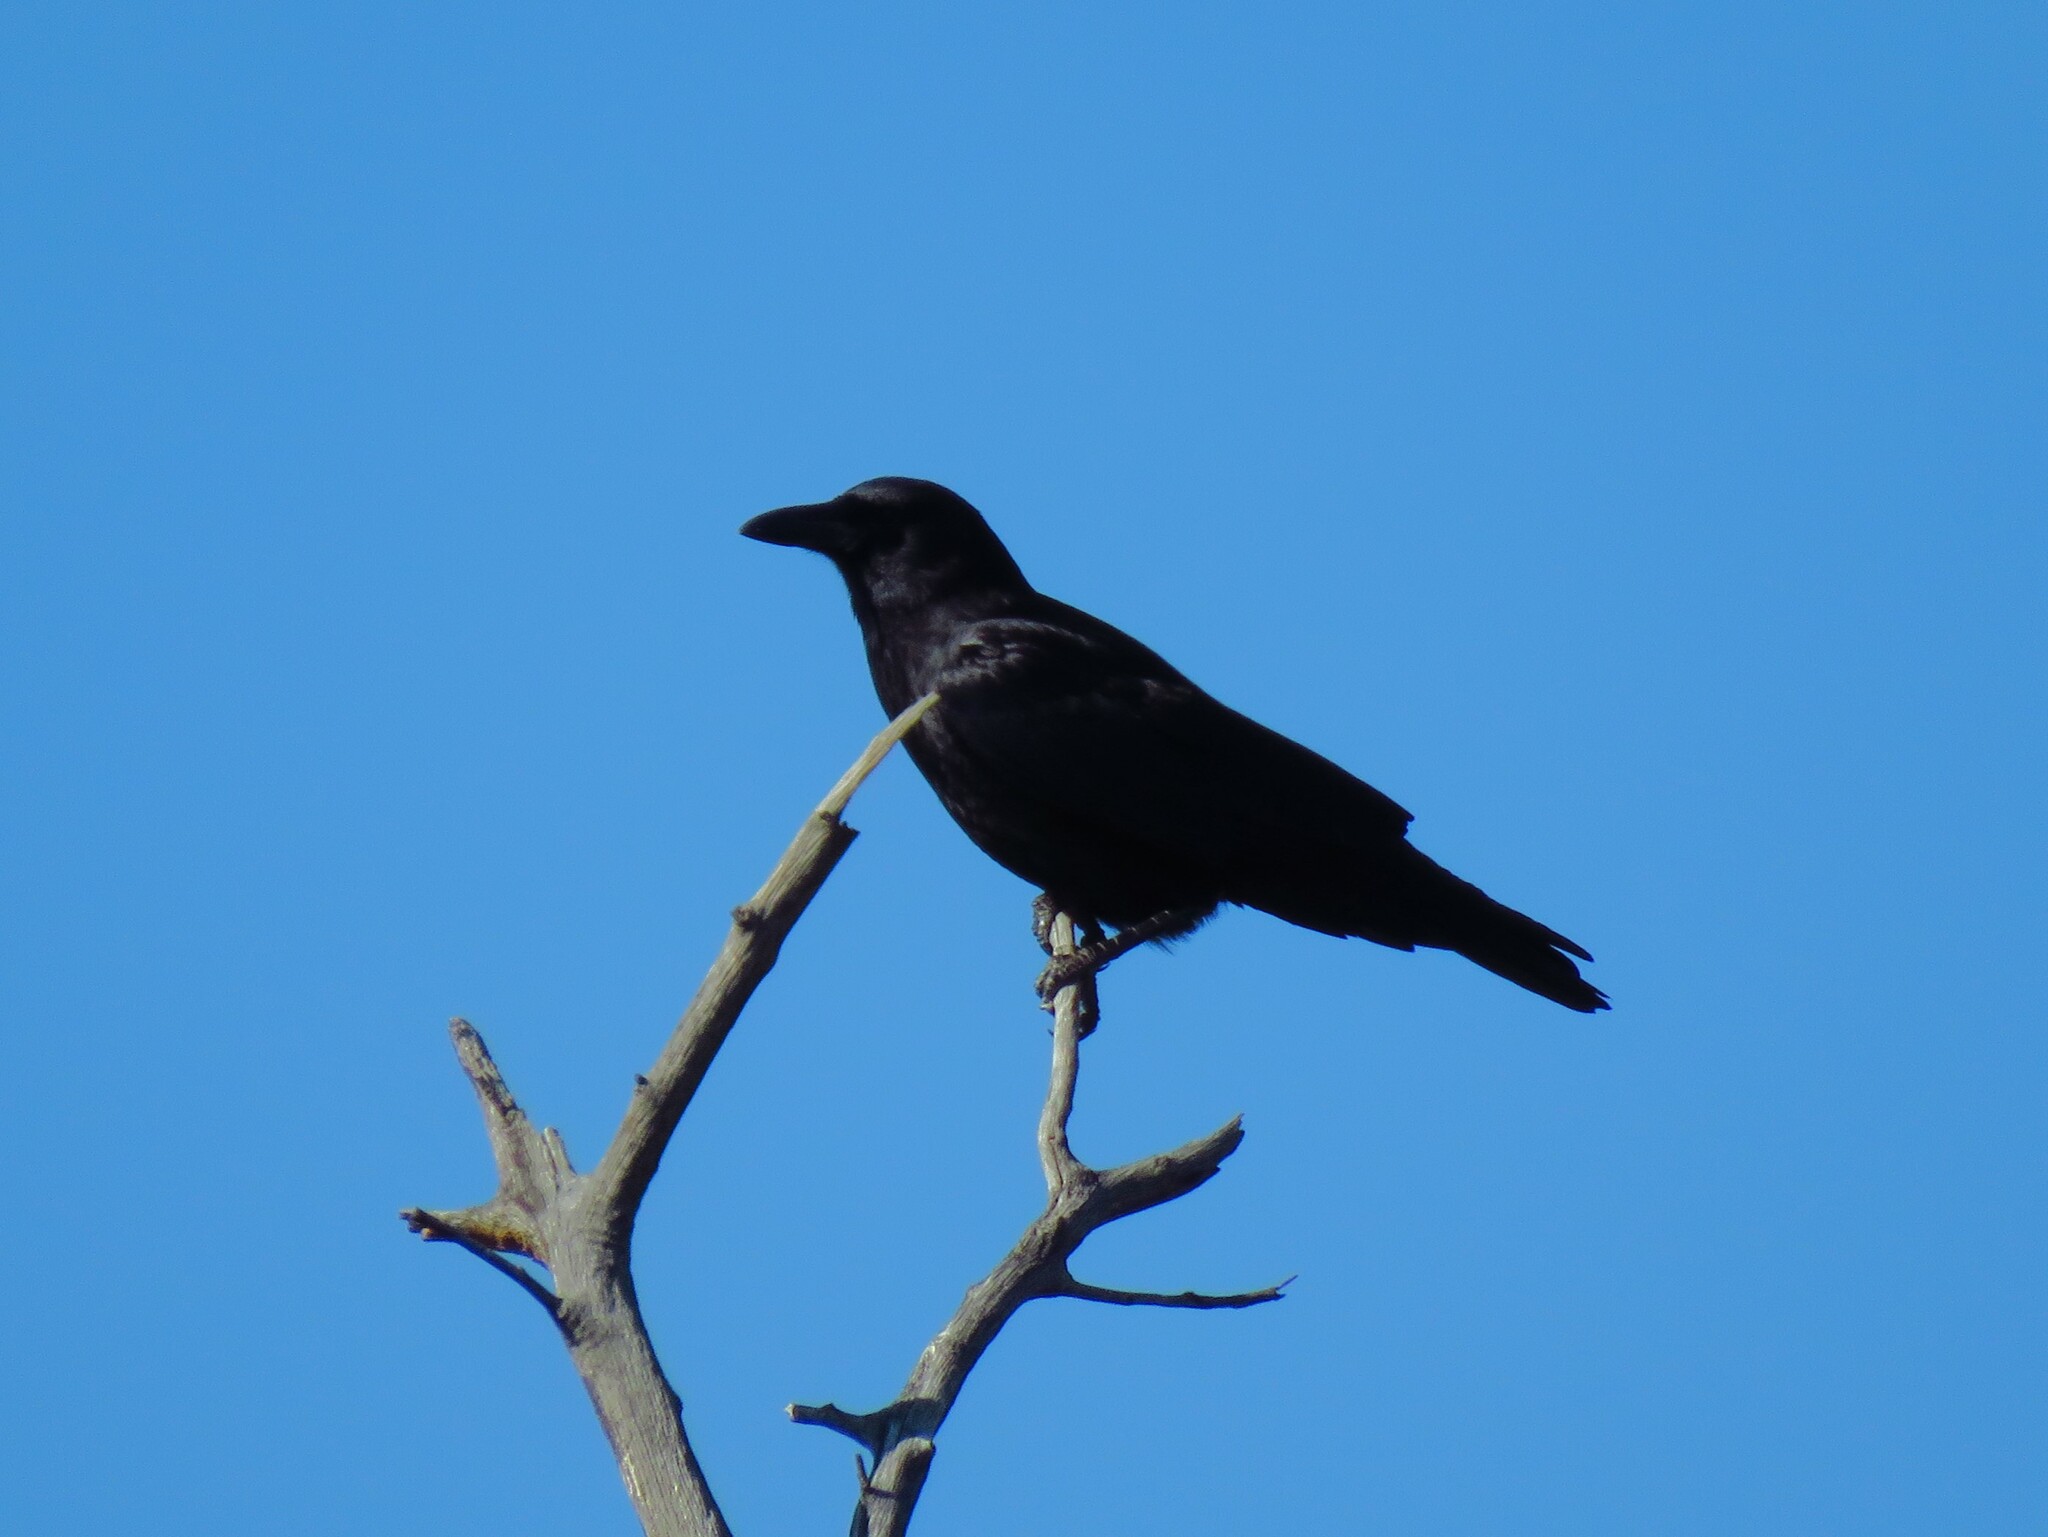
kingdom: Animalia
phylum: Chordata
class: Aves
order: Passeriformes
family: Corvidae
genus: Corvus
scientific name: Corvus brachyrhynchos
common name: American crow
